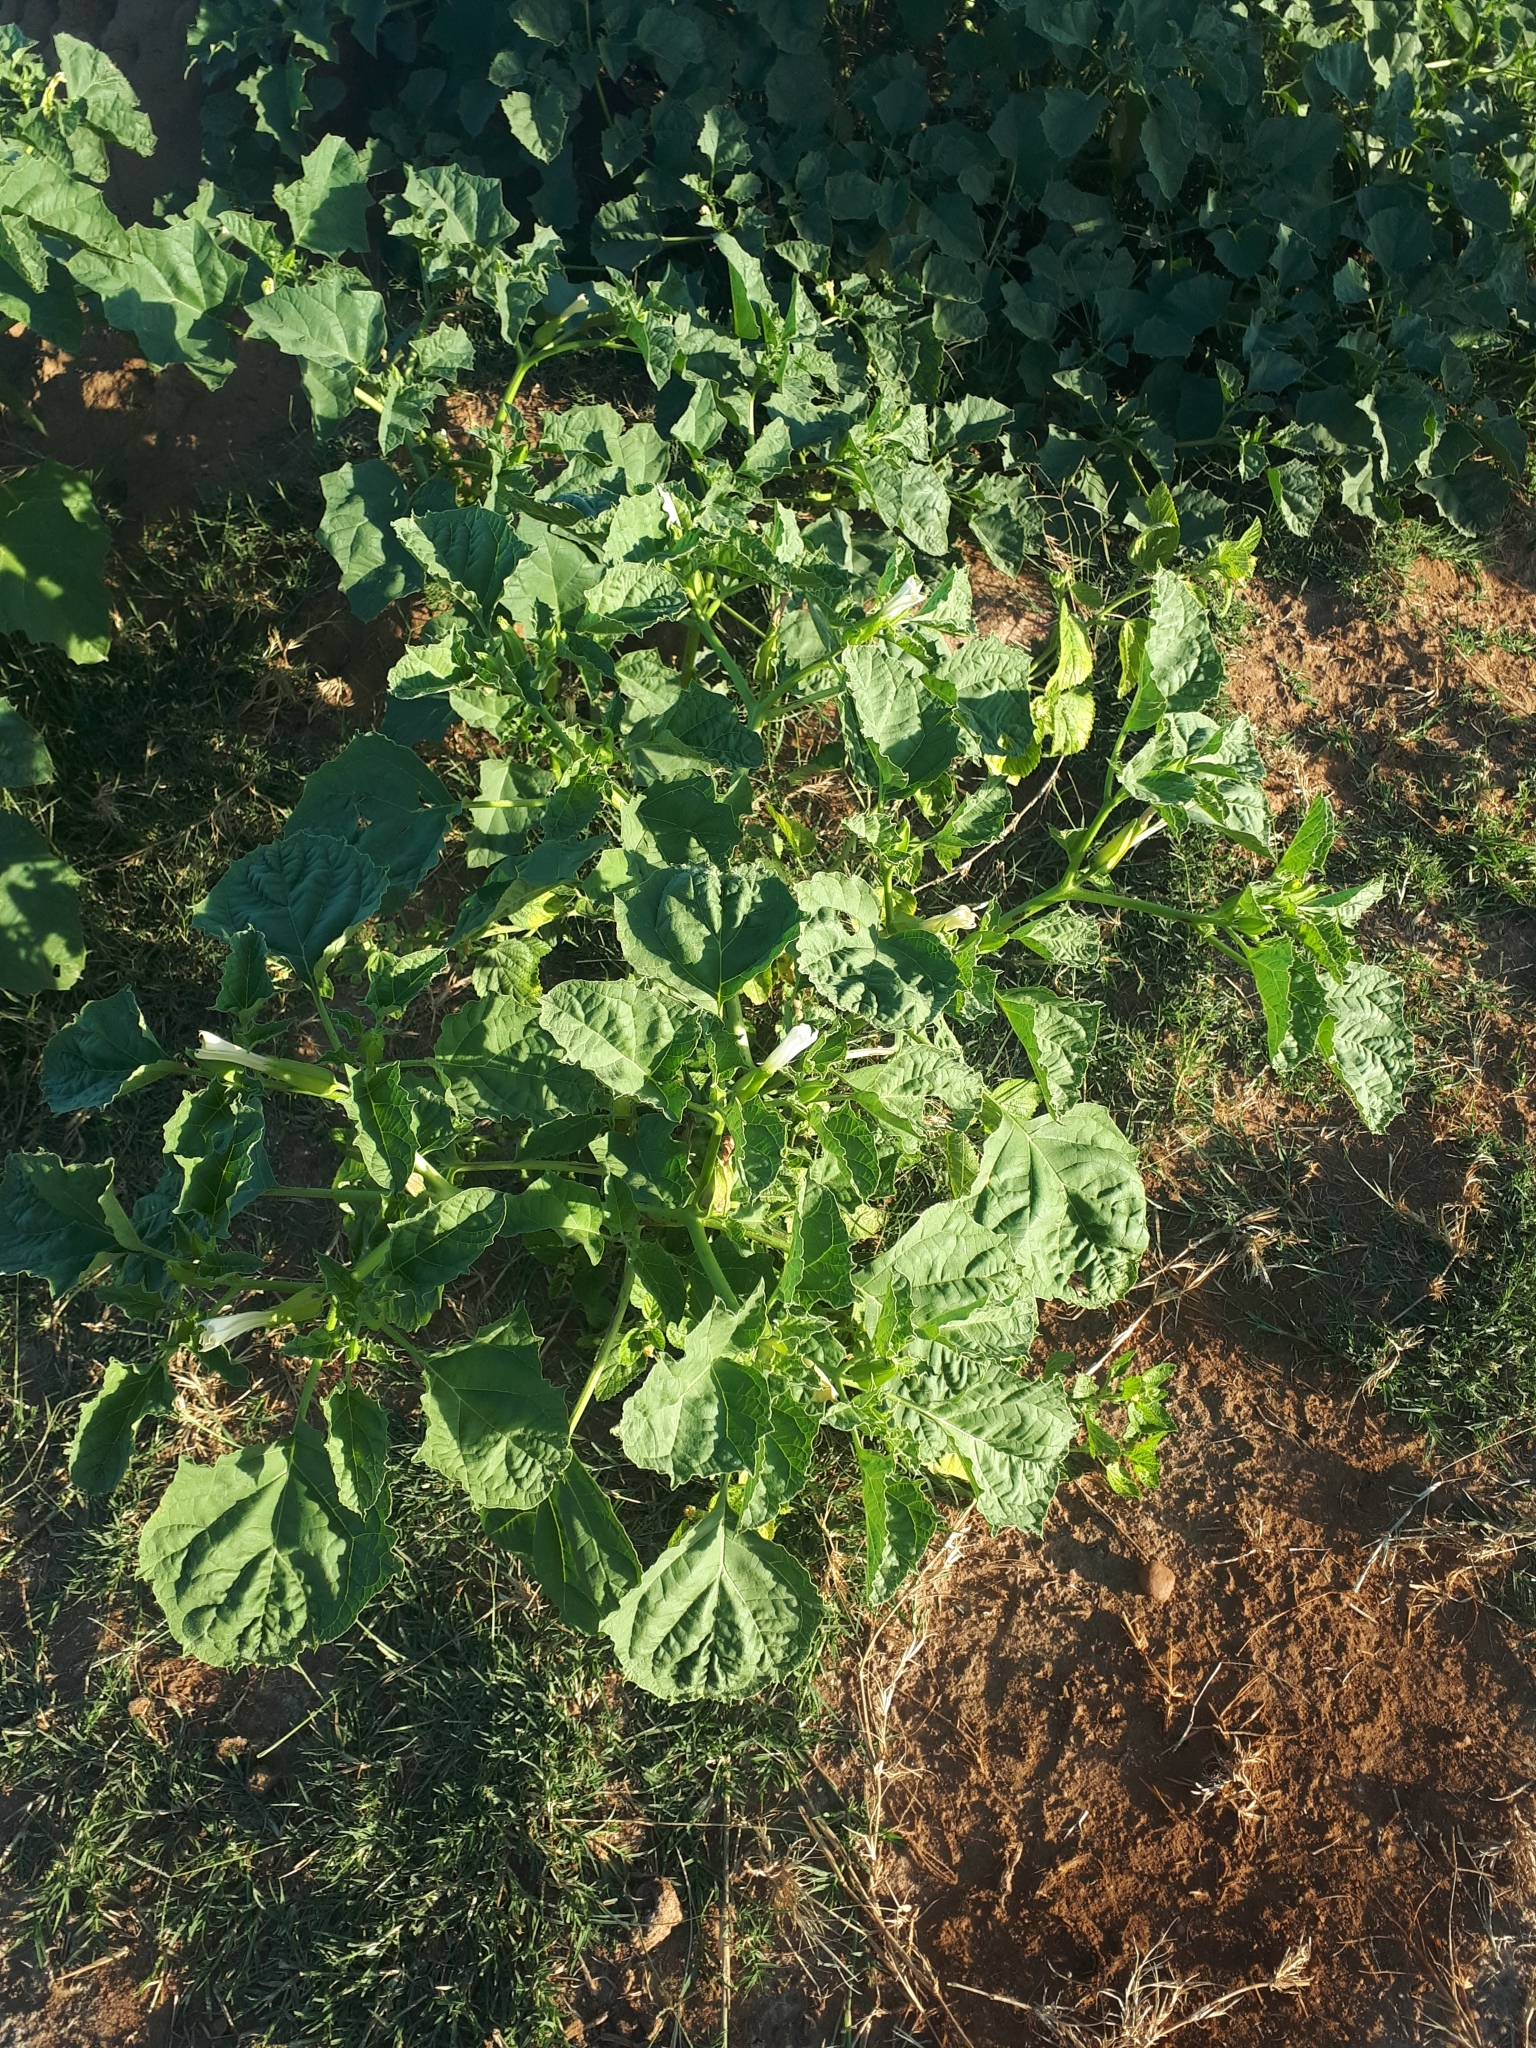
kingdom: Plantae
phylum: Tracheophyta
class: Magnoliopsida
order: Solanales
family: Solanaceae
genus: Datura
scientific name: Datura ferox
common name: Angel's-trumpets
